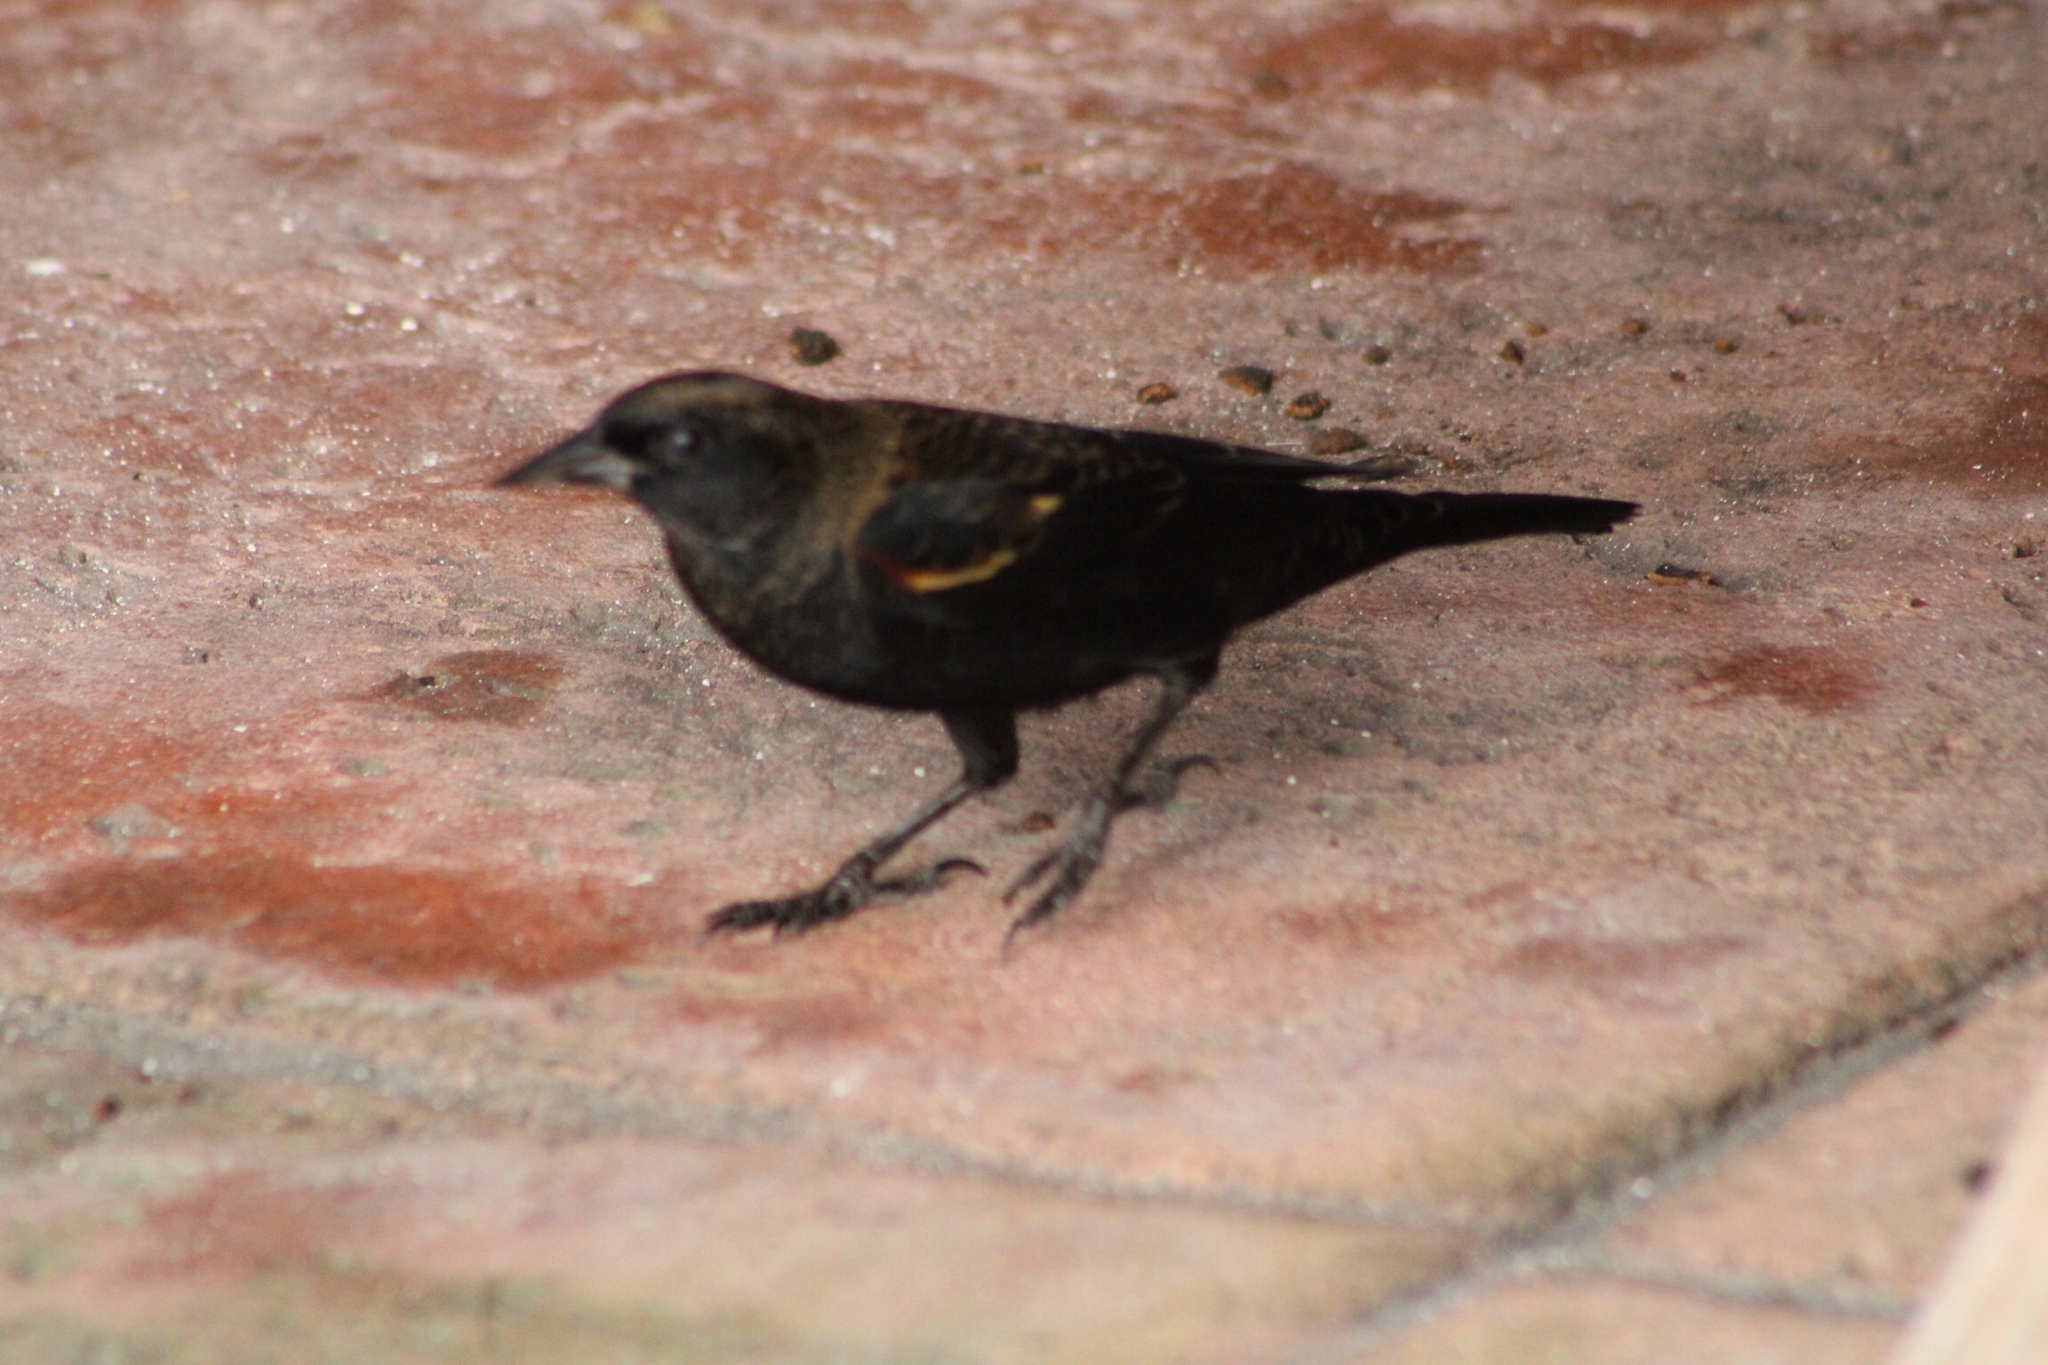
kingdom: Animalia
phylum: Chordata
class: Aves
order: Passeriformes
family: Icteridae
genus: Agelaius
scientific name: Agelaius phoeniceus
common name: Red-winged blackbird
